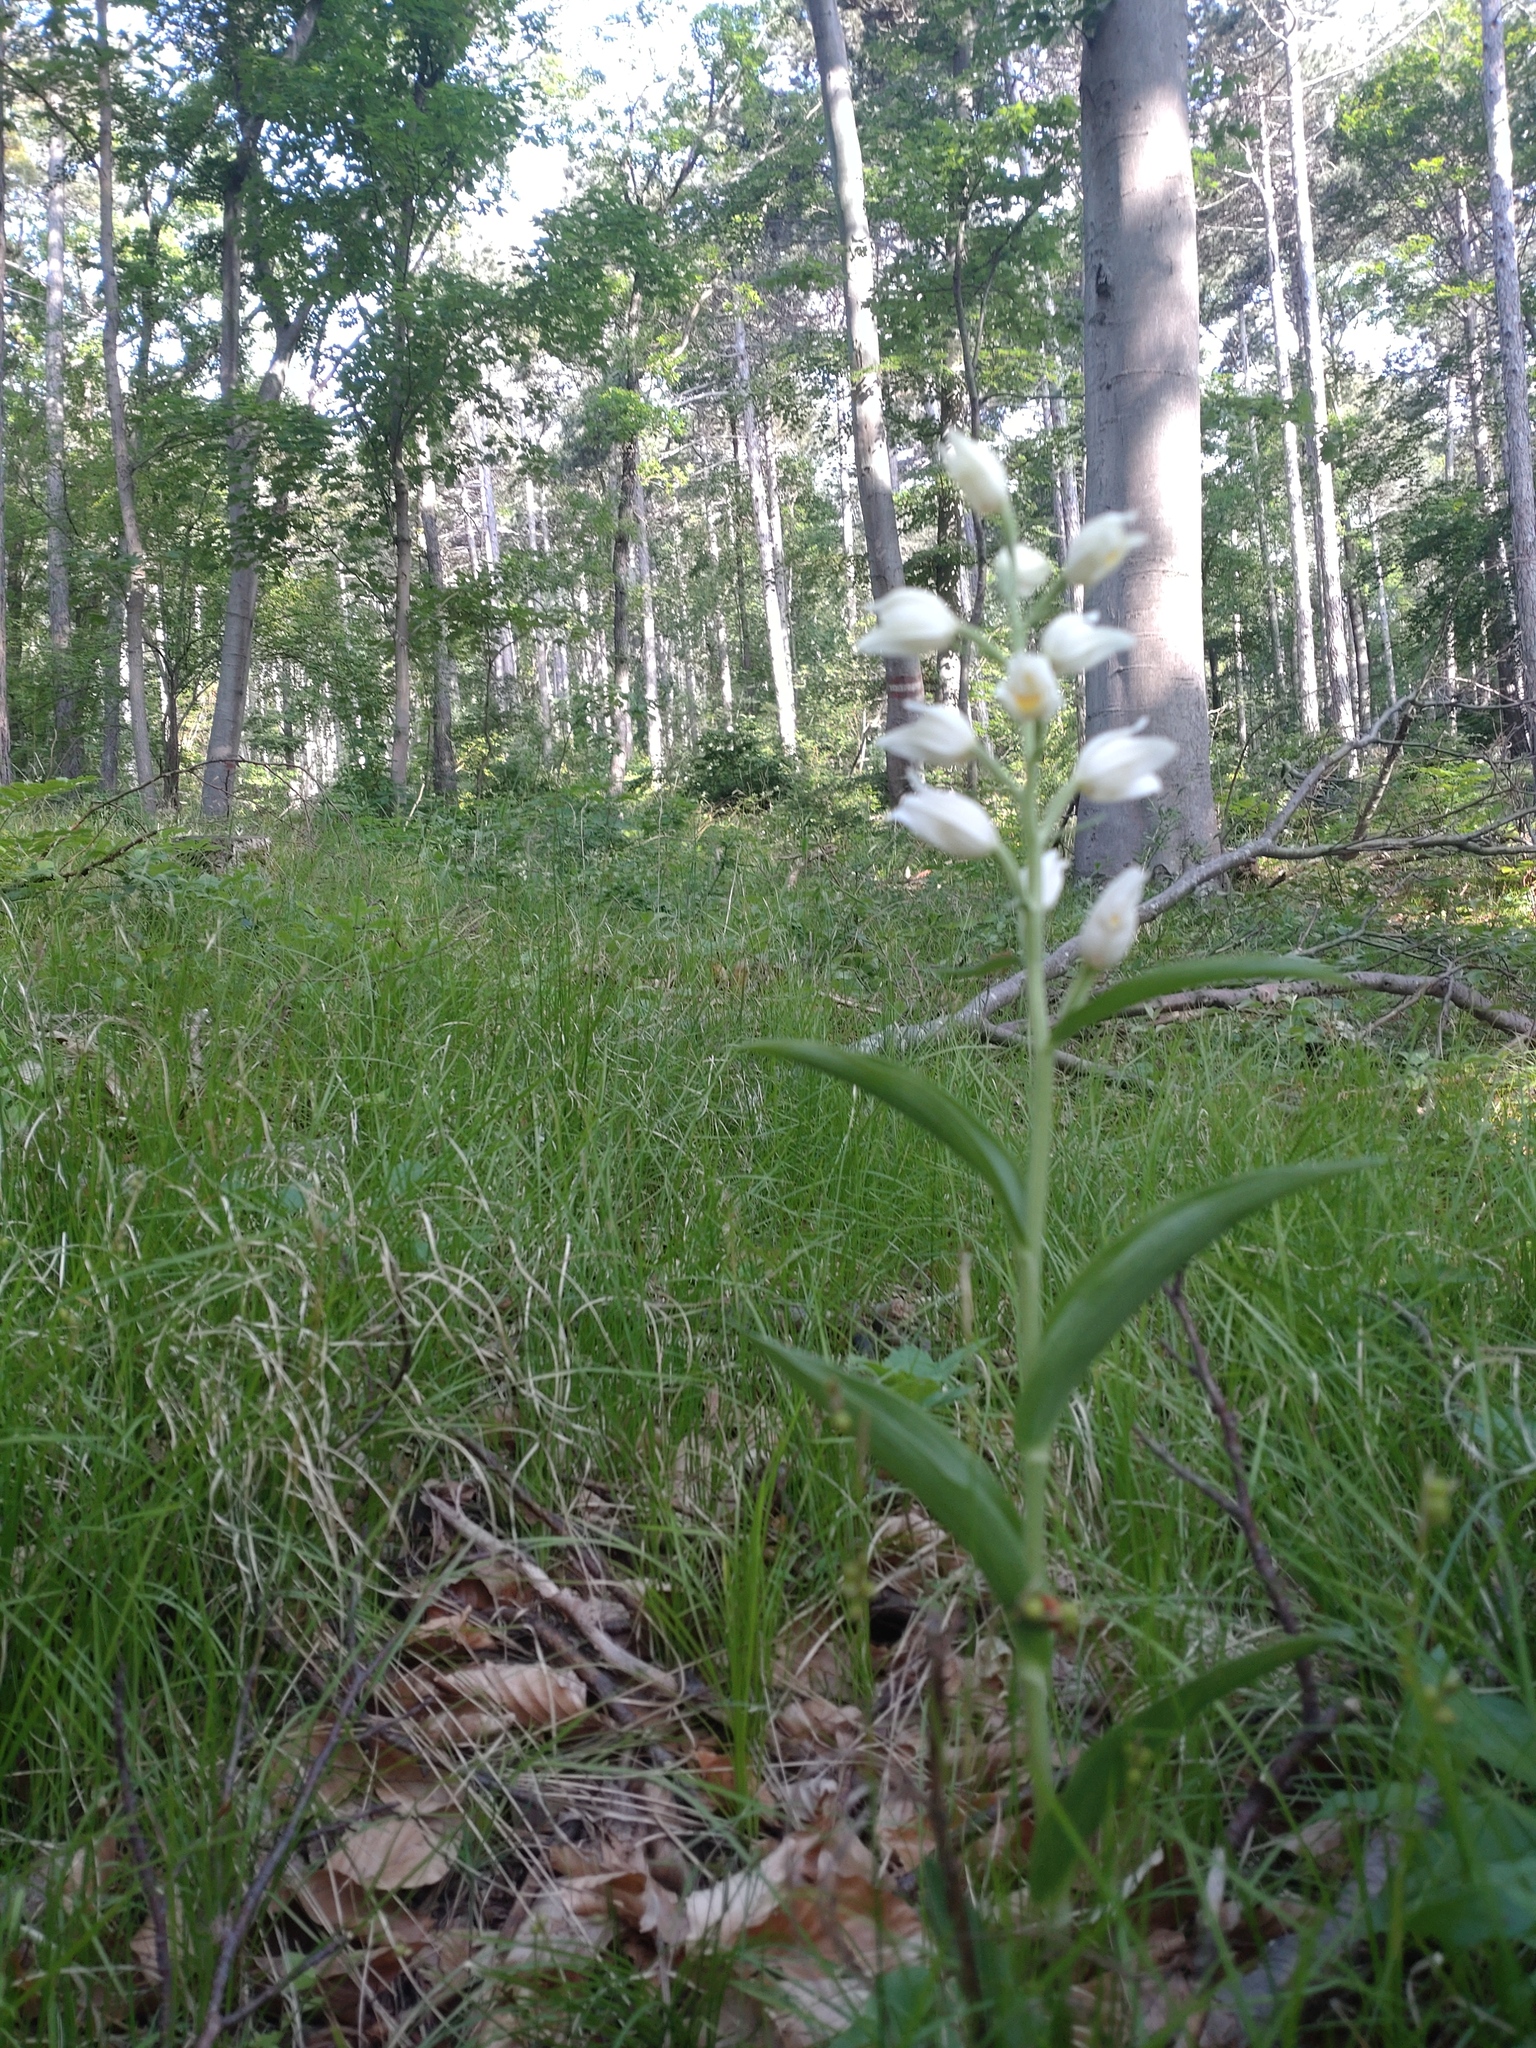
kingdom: Plantae
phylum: Tracheophyta
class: Liliopsida
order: Asparagales
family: Orchidaceae
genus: Cephalanthera
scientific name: Cephalanthera damasonium
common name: White helleborine
